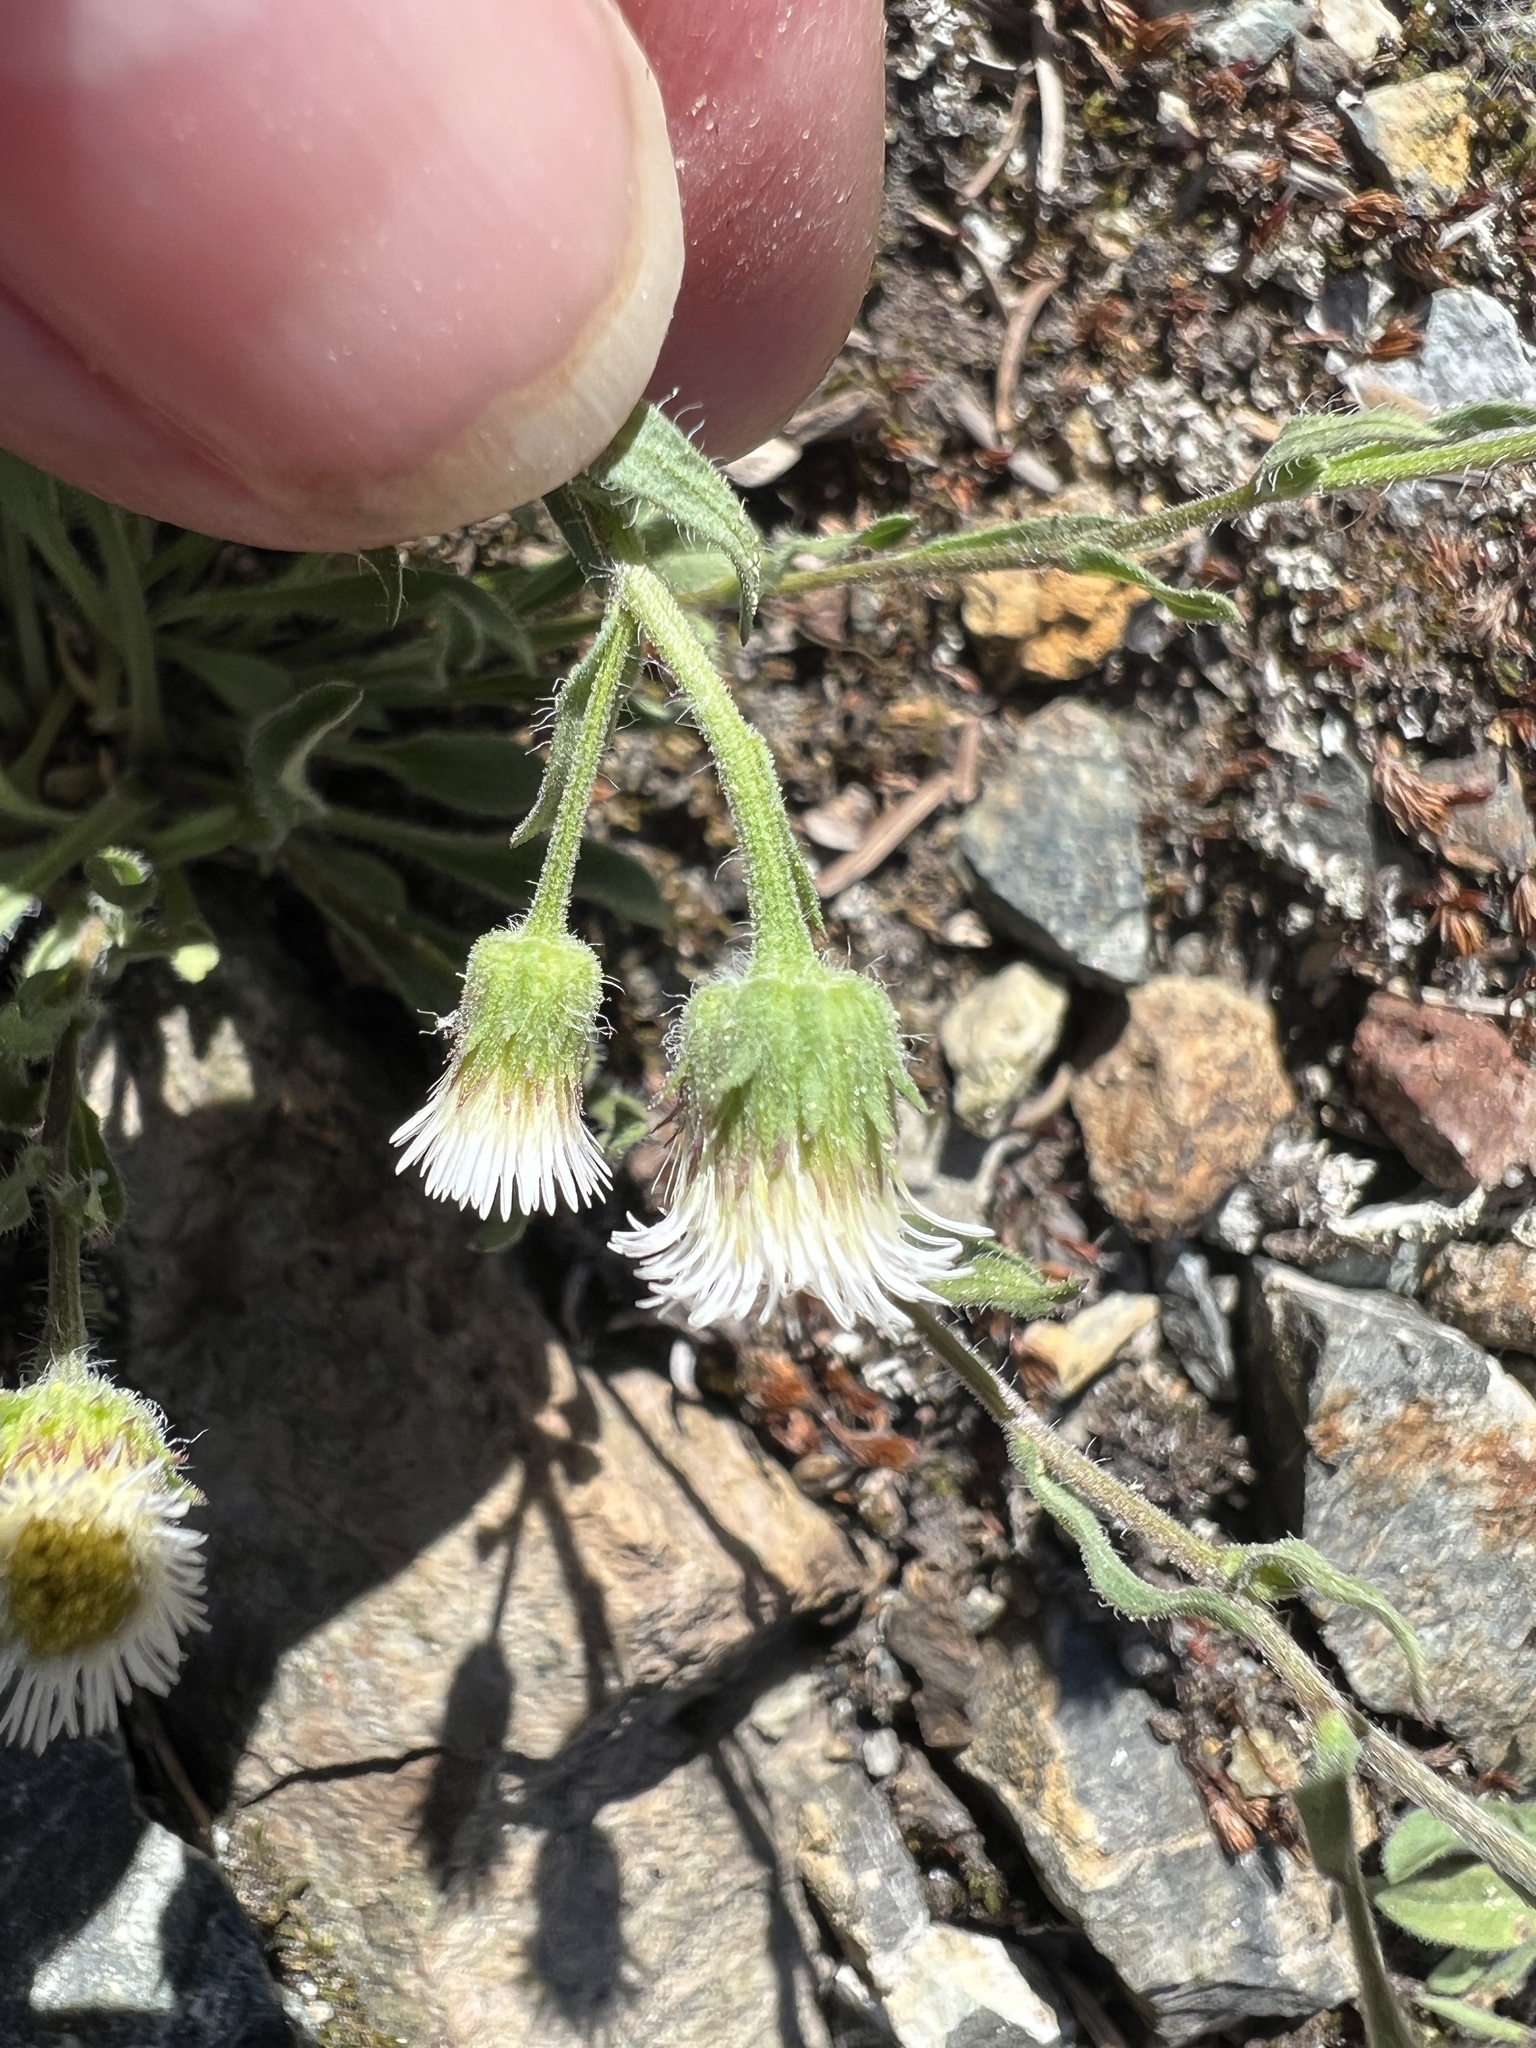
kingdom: Plantae
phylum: Tracheophyta
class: Magnoliopsida
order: Asterales
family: Asteraceae
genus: Erigeron
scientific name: Erigeron nivalis
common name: Snow fleabane
